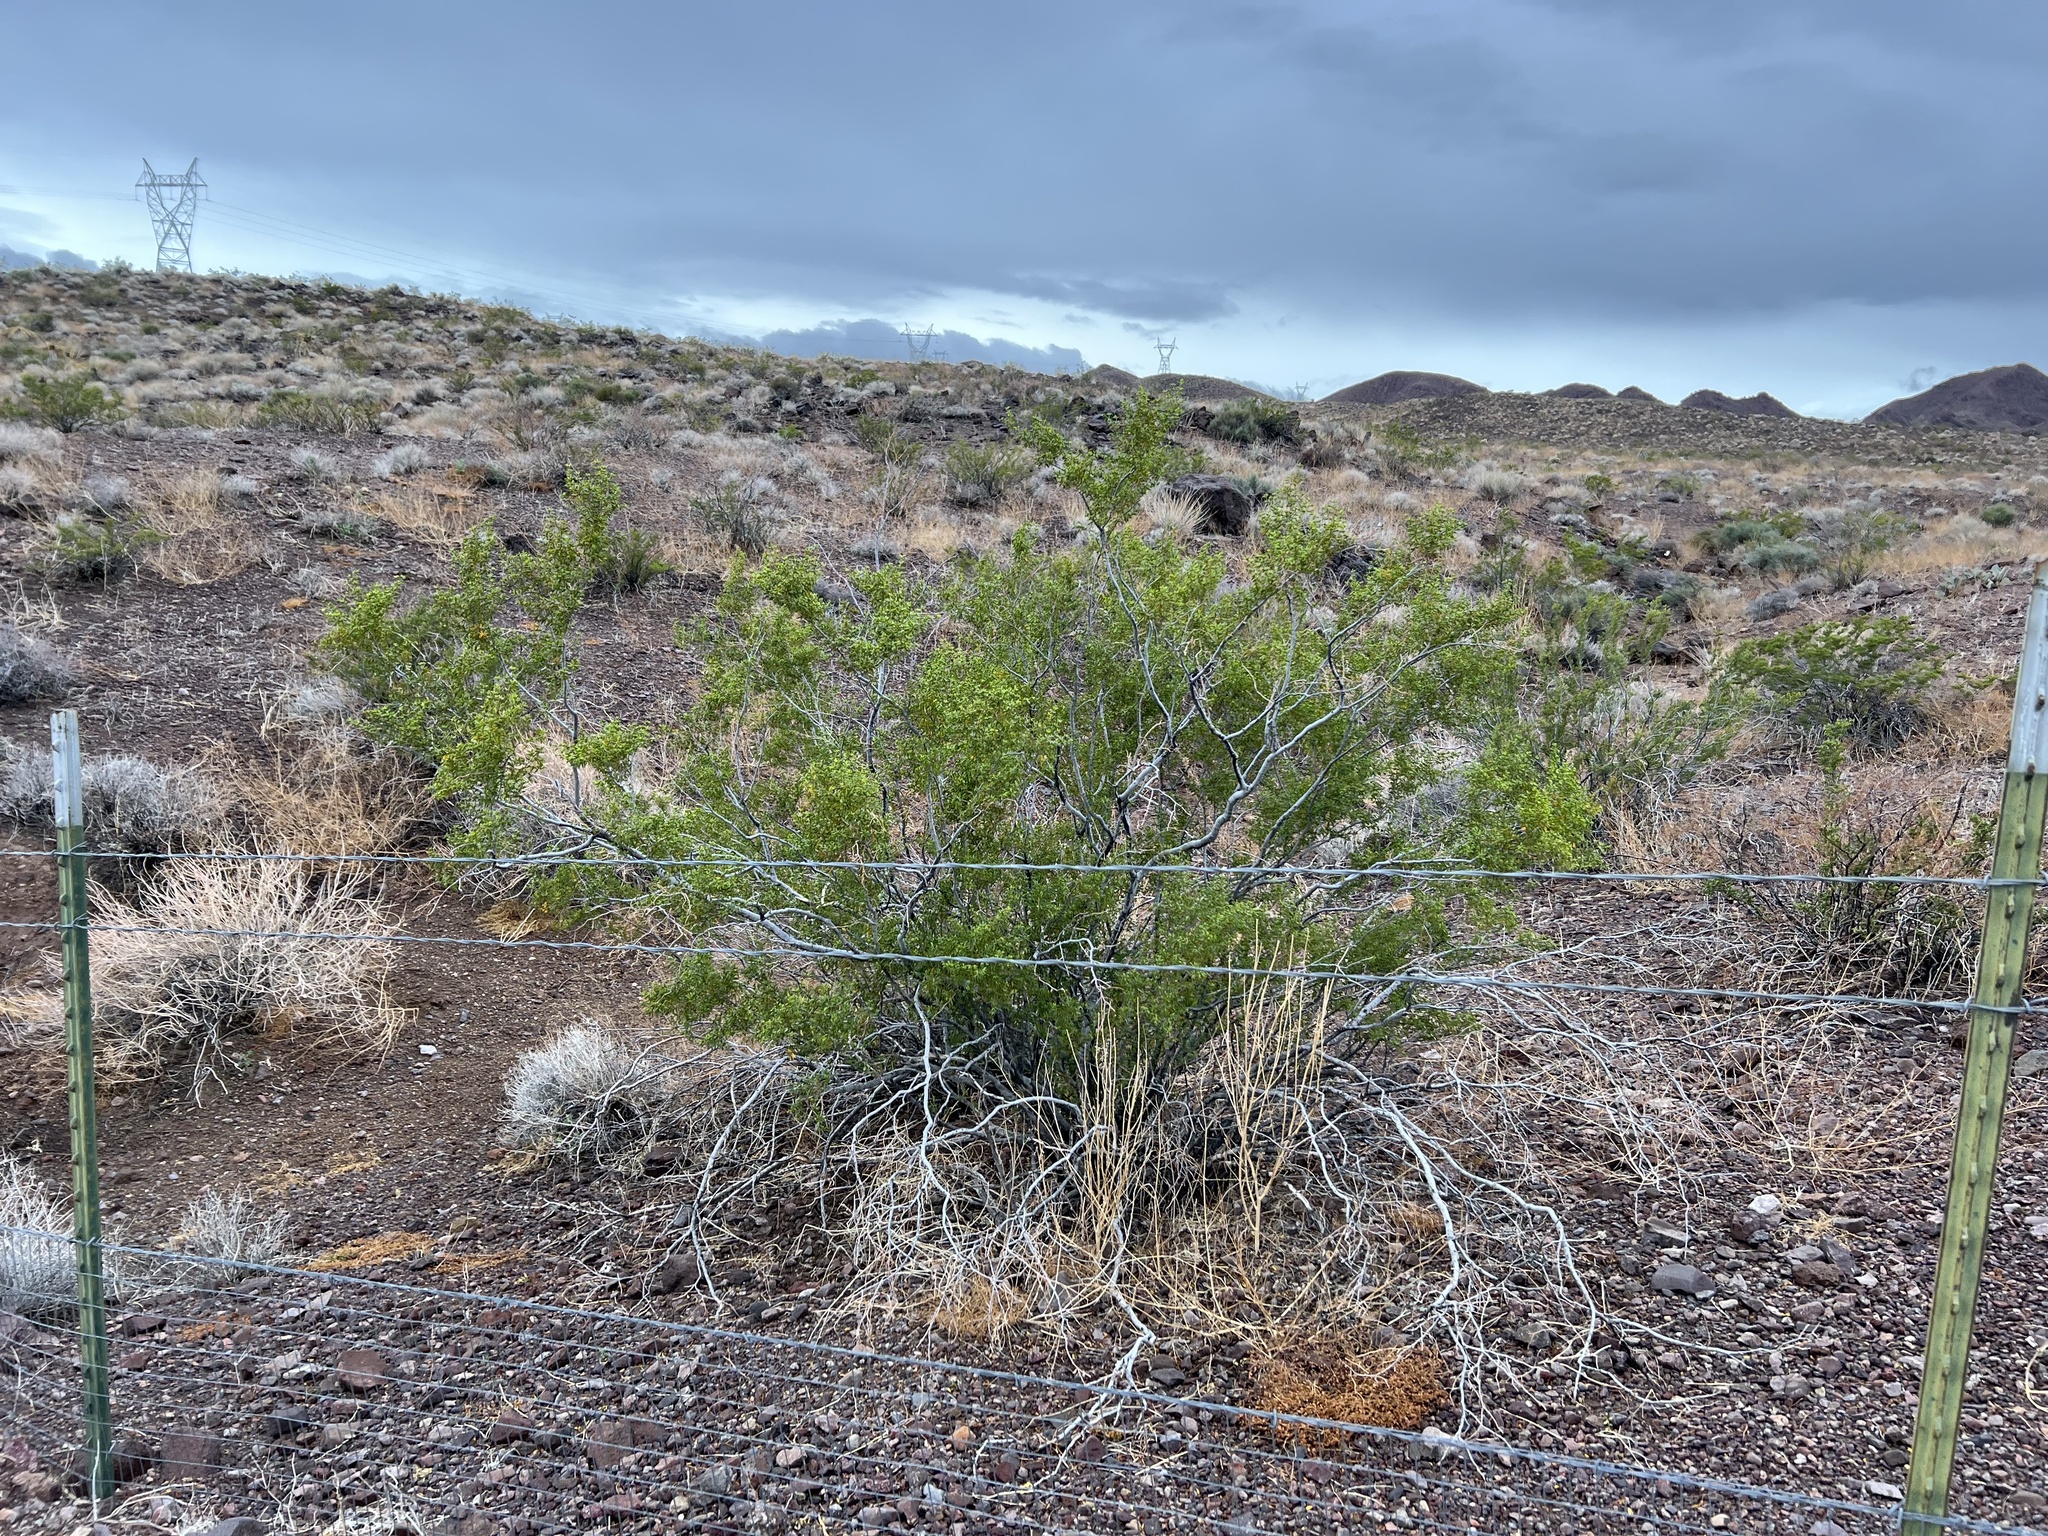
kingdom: Plantae
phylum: Tracheophyta
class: Magnoliopsida
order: Zygophyllales
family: Zygophyllaceae
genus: Larrea
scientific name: Larrea tridentata
